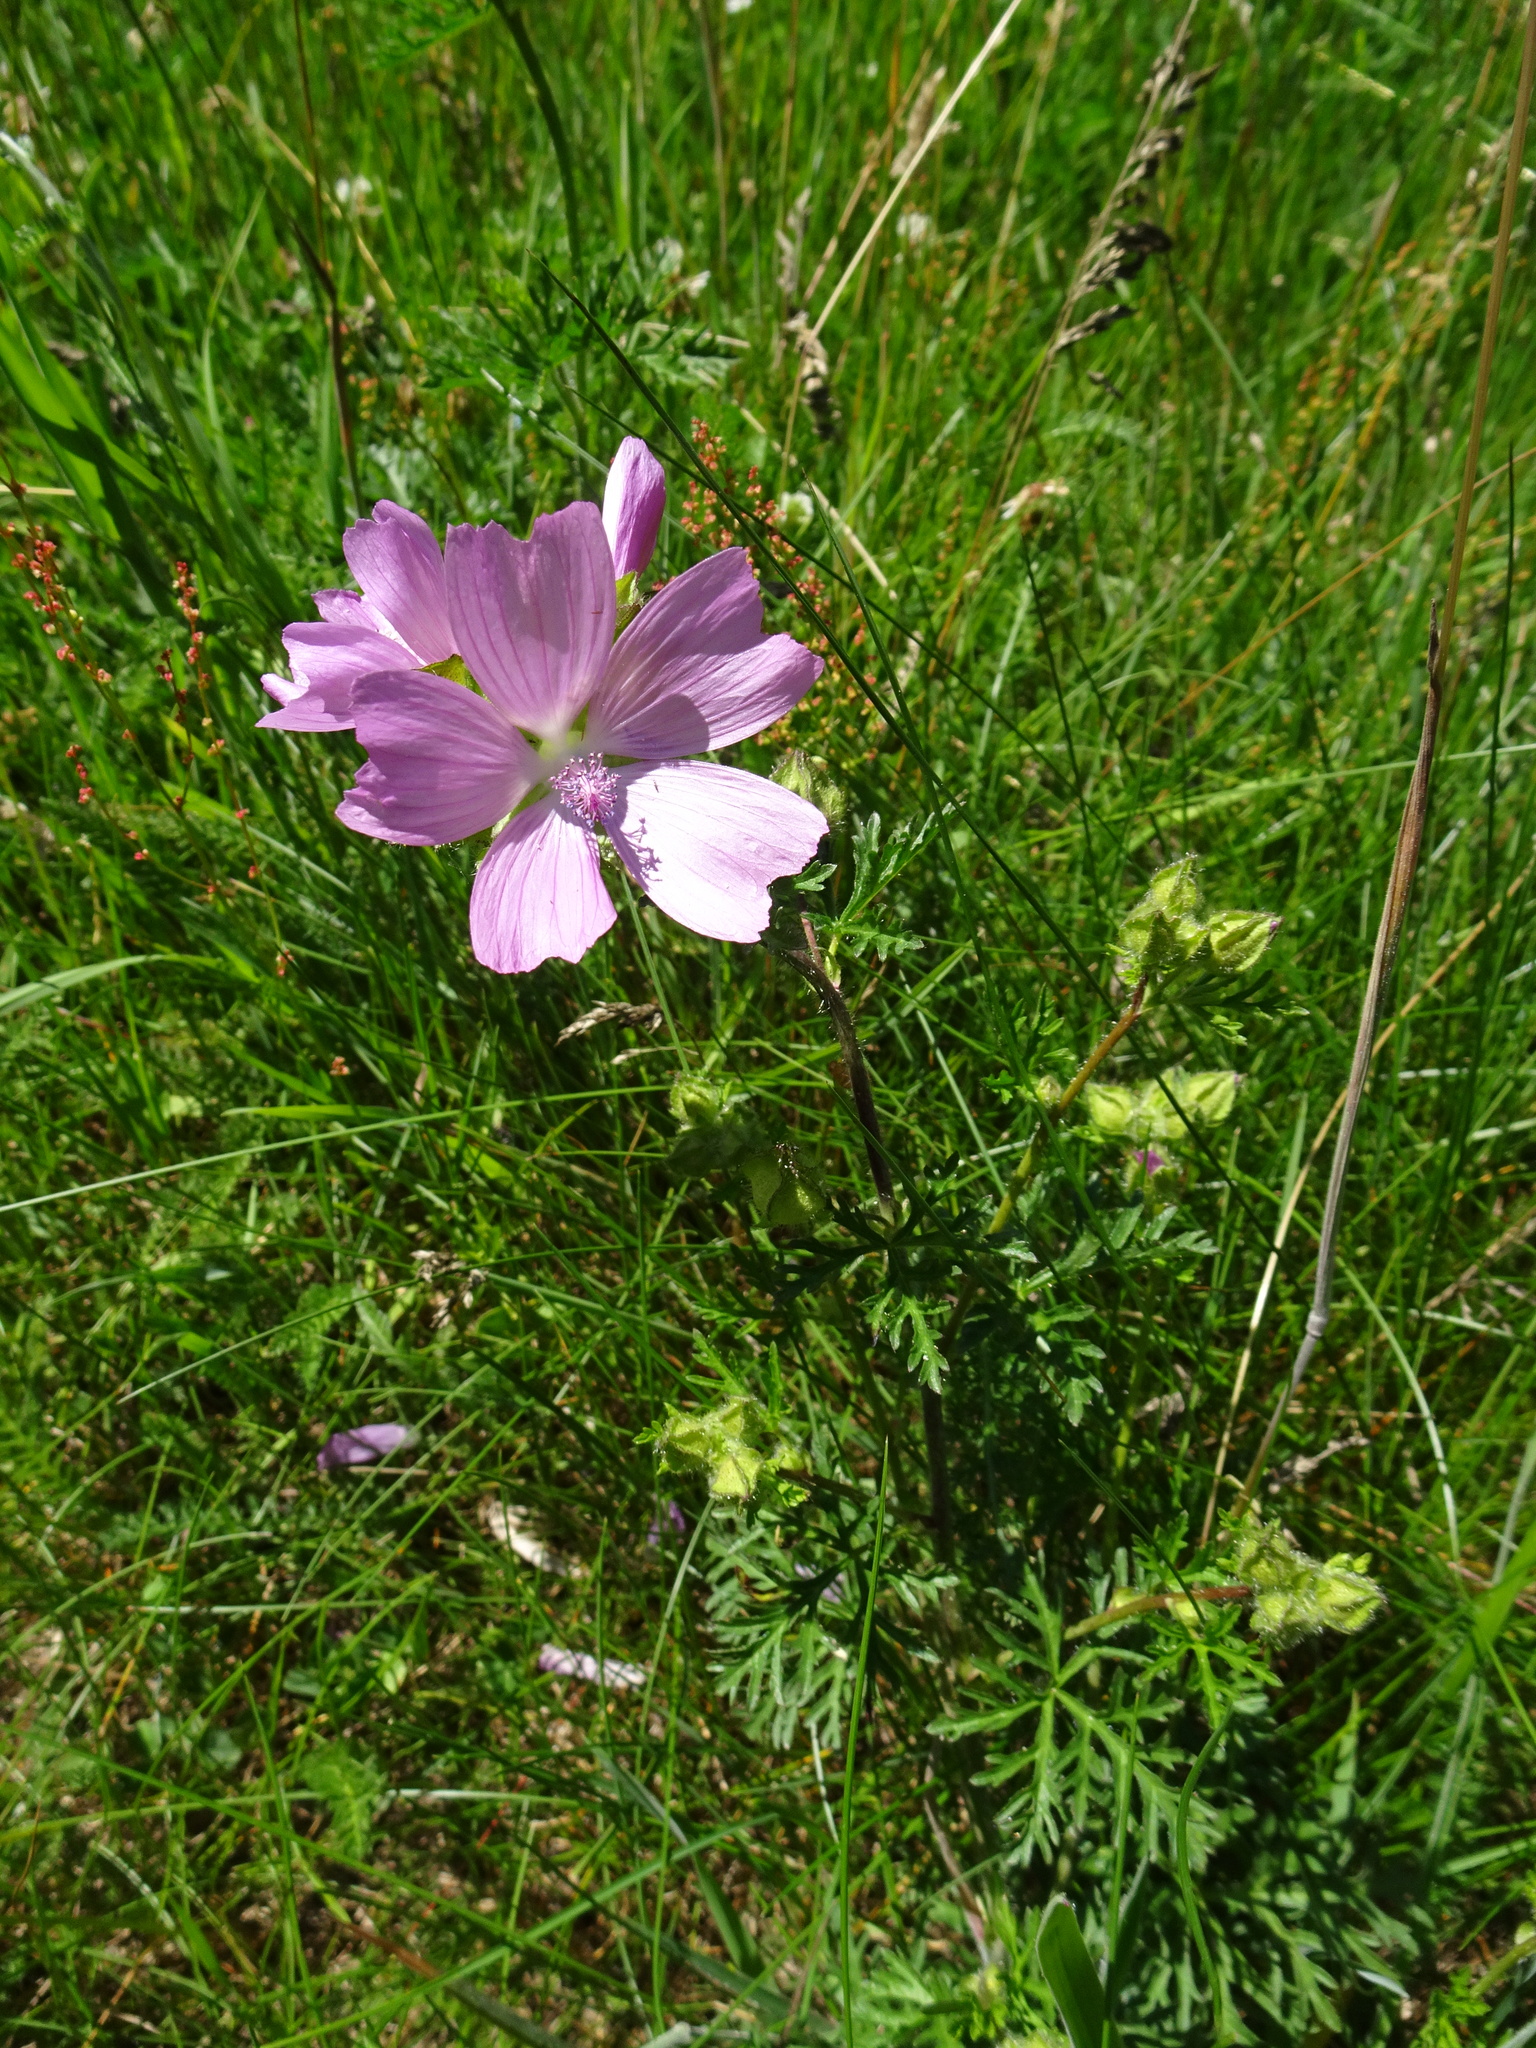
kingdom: Plantae
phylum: Tracheophyta
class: Magnoliopsida
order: Malvales
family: Malvaceae
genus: Malva
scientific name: Malva moschata
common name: Musk mallow
